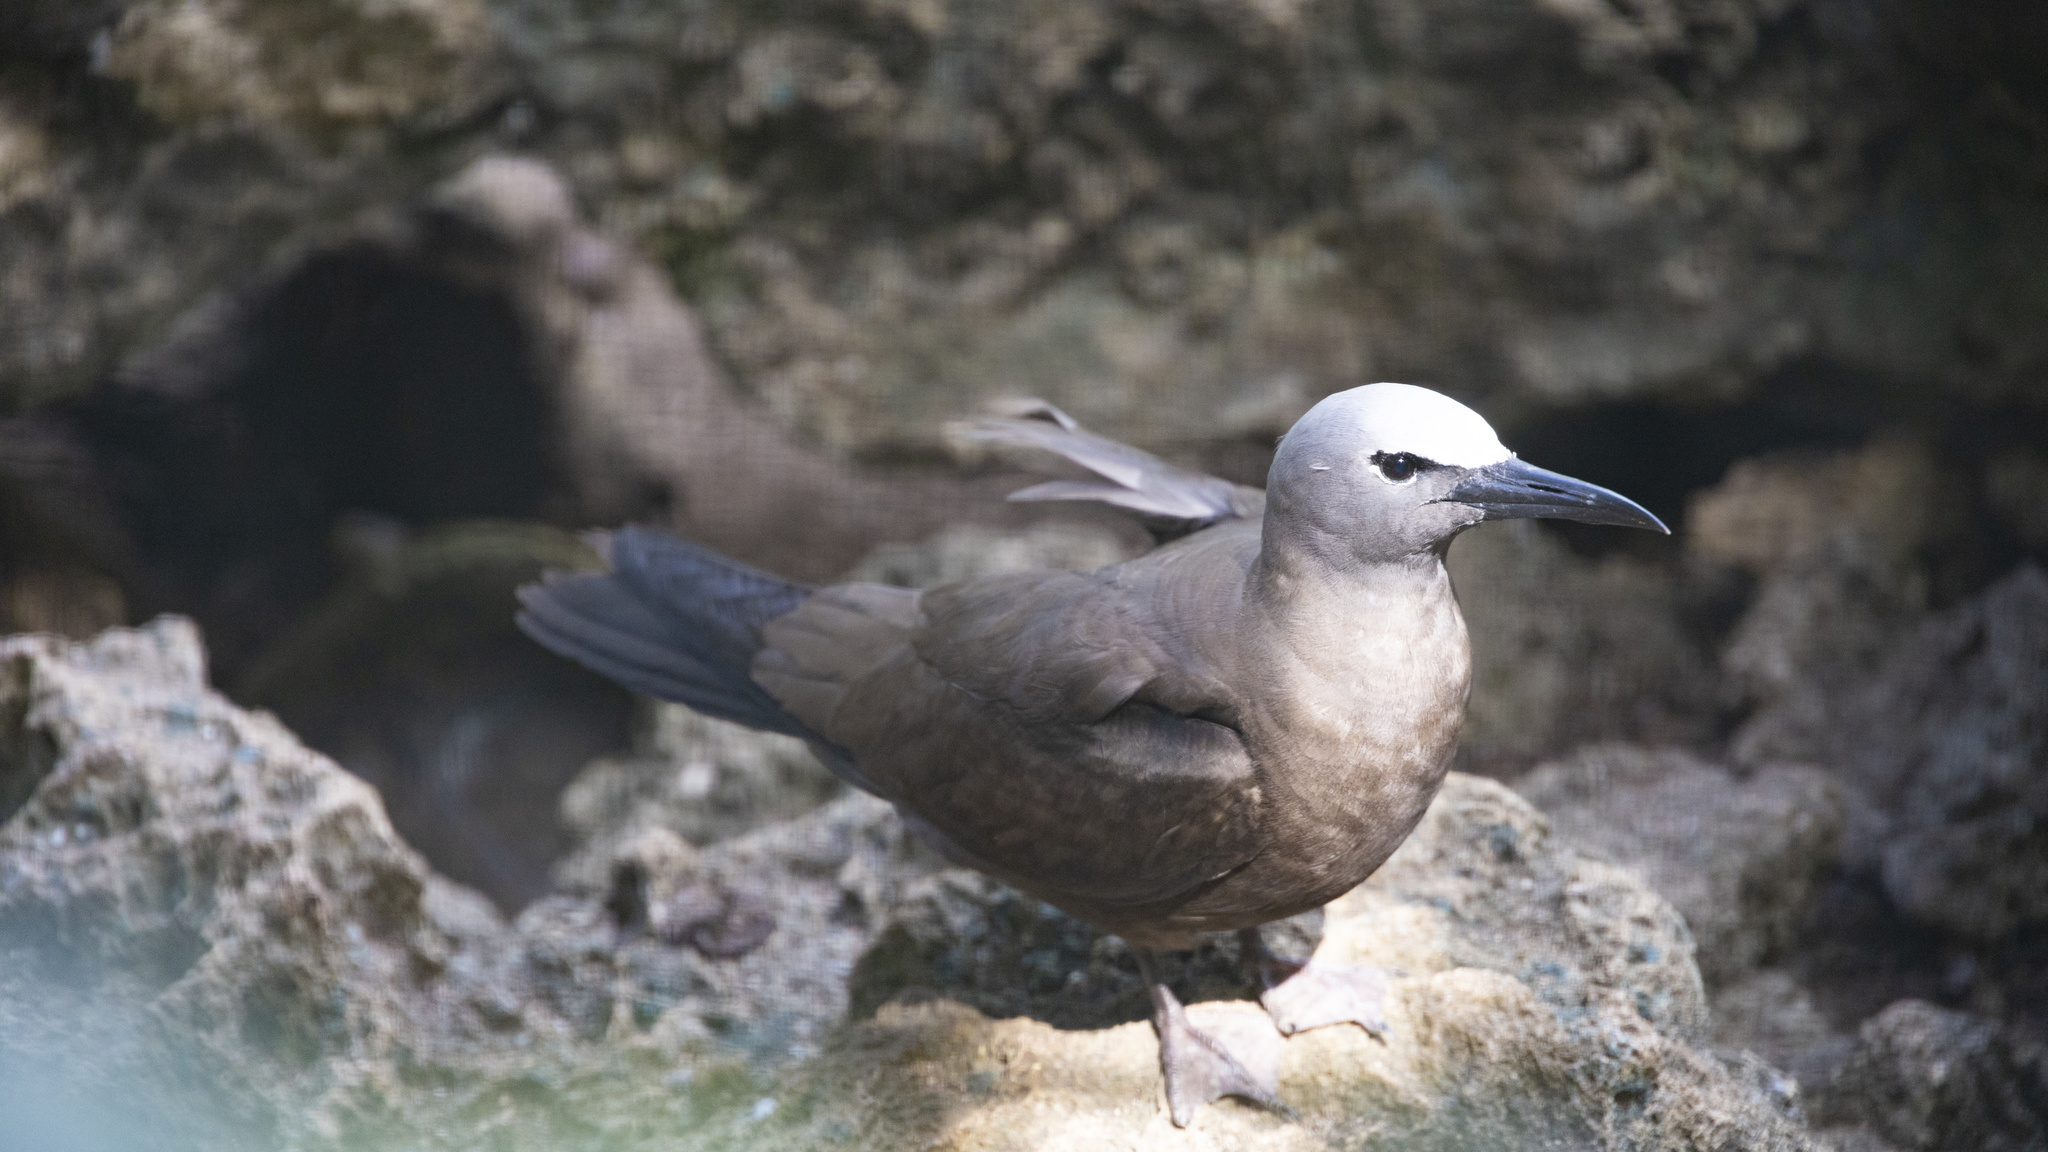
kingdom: Animalia
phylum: Chordata
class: Aves
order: Charadriiformes
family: Laridae
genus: Anous
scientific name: Anous stolidus
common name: Brown noddy
